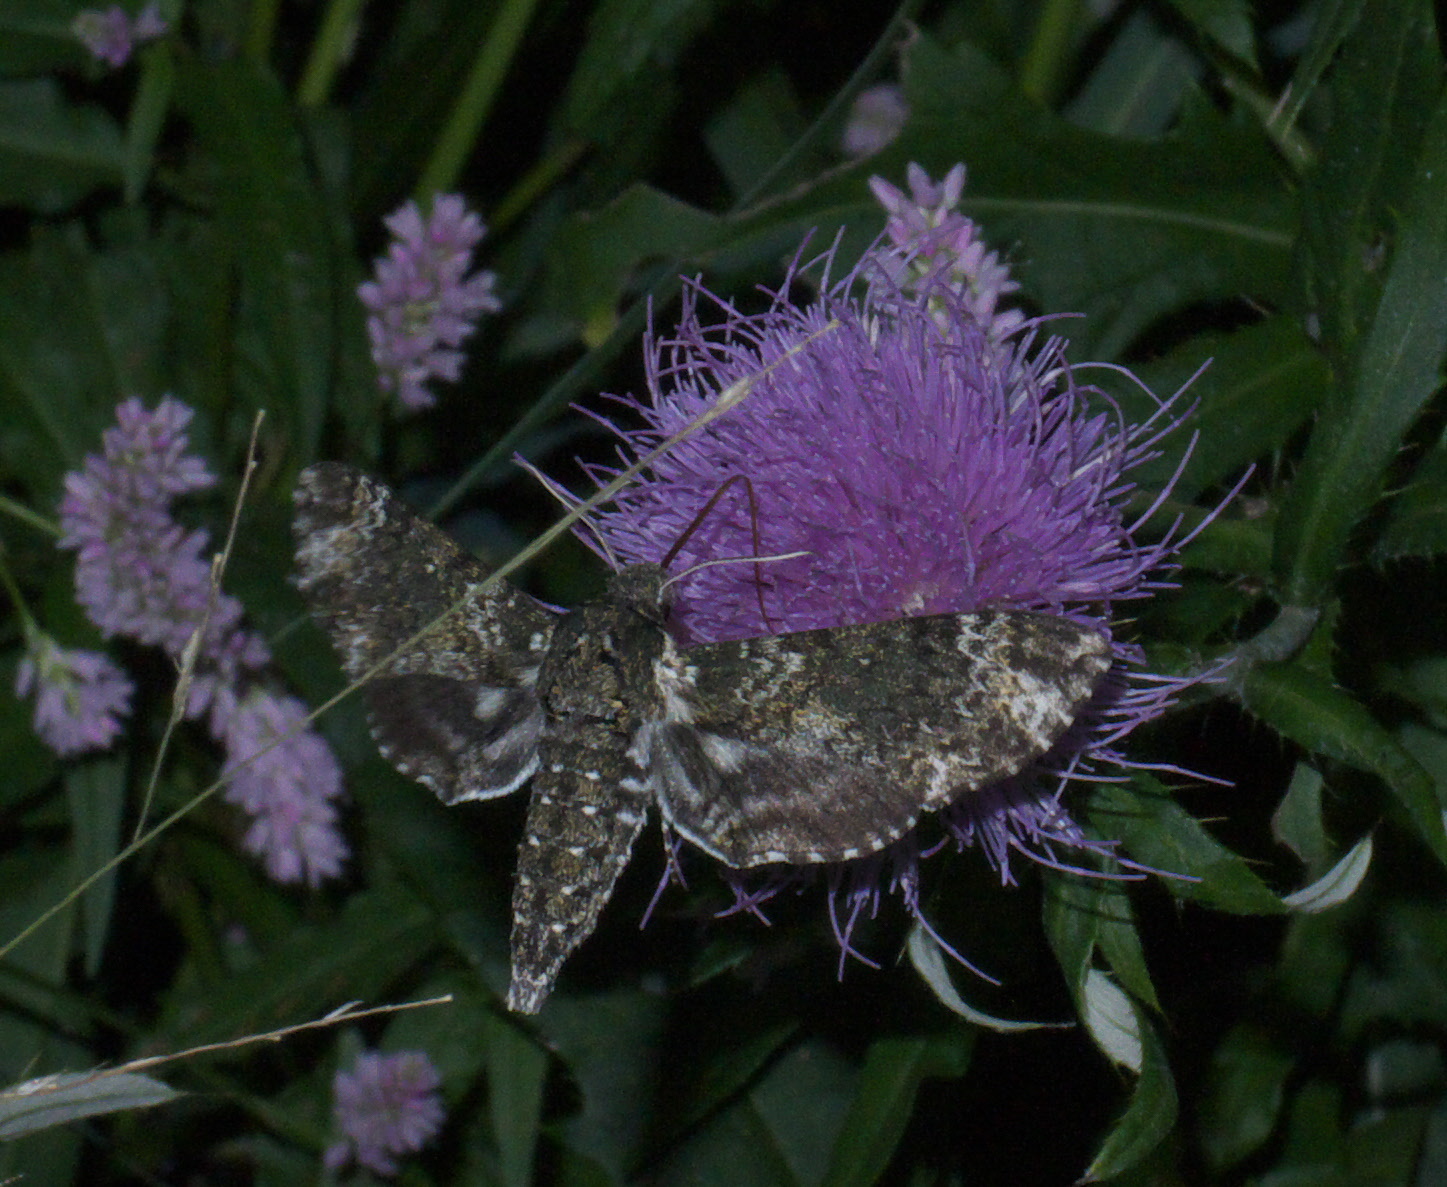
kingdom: Animalia
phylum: Arthropoda
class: Insecta
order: Lepidoptera
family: Sphingidae
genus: Dolba
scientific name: Dolba hyloeus
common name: Pawpaw sphinx
